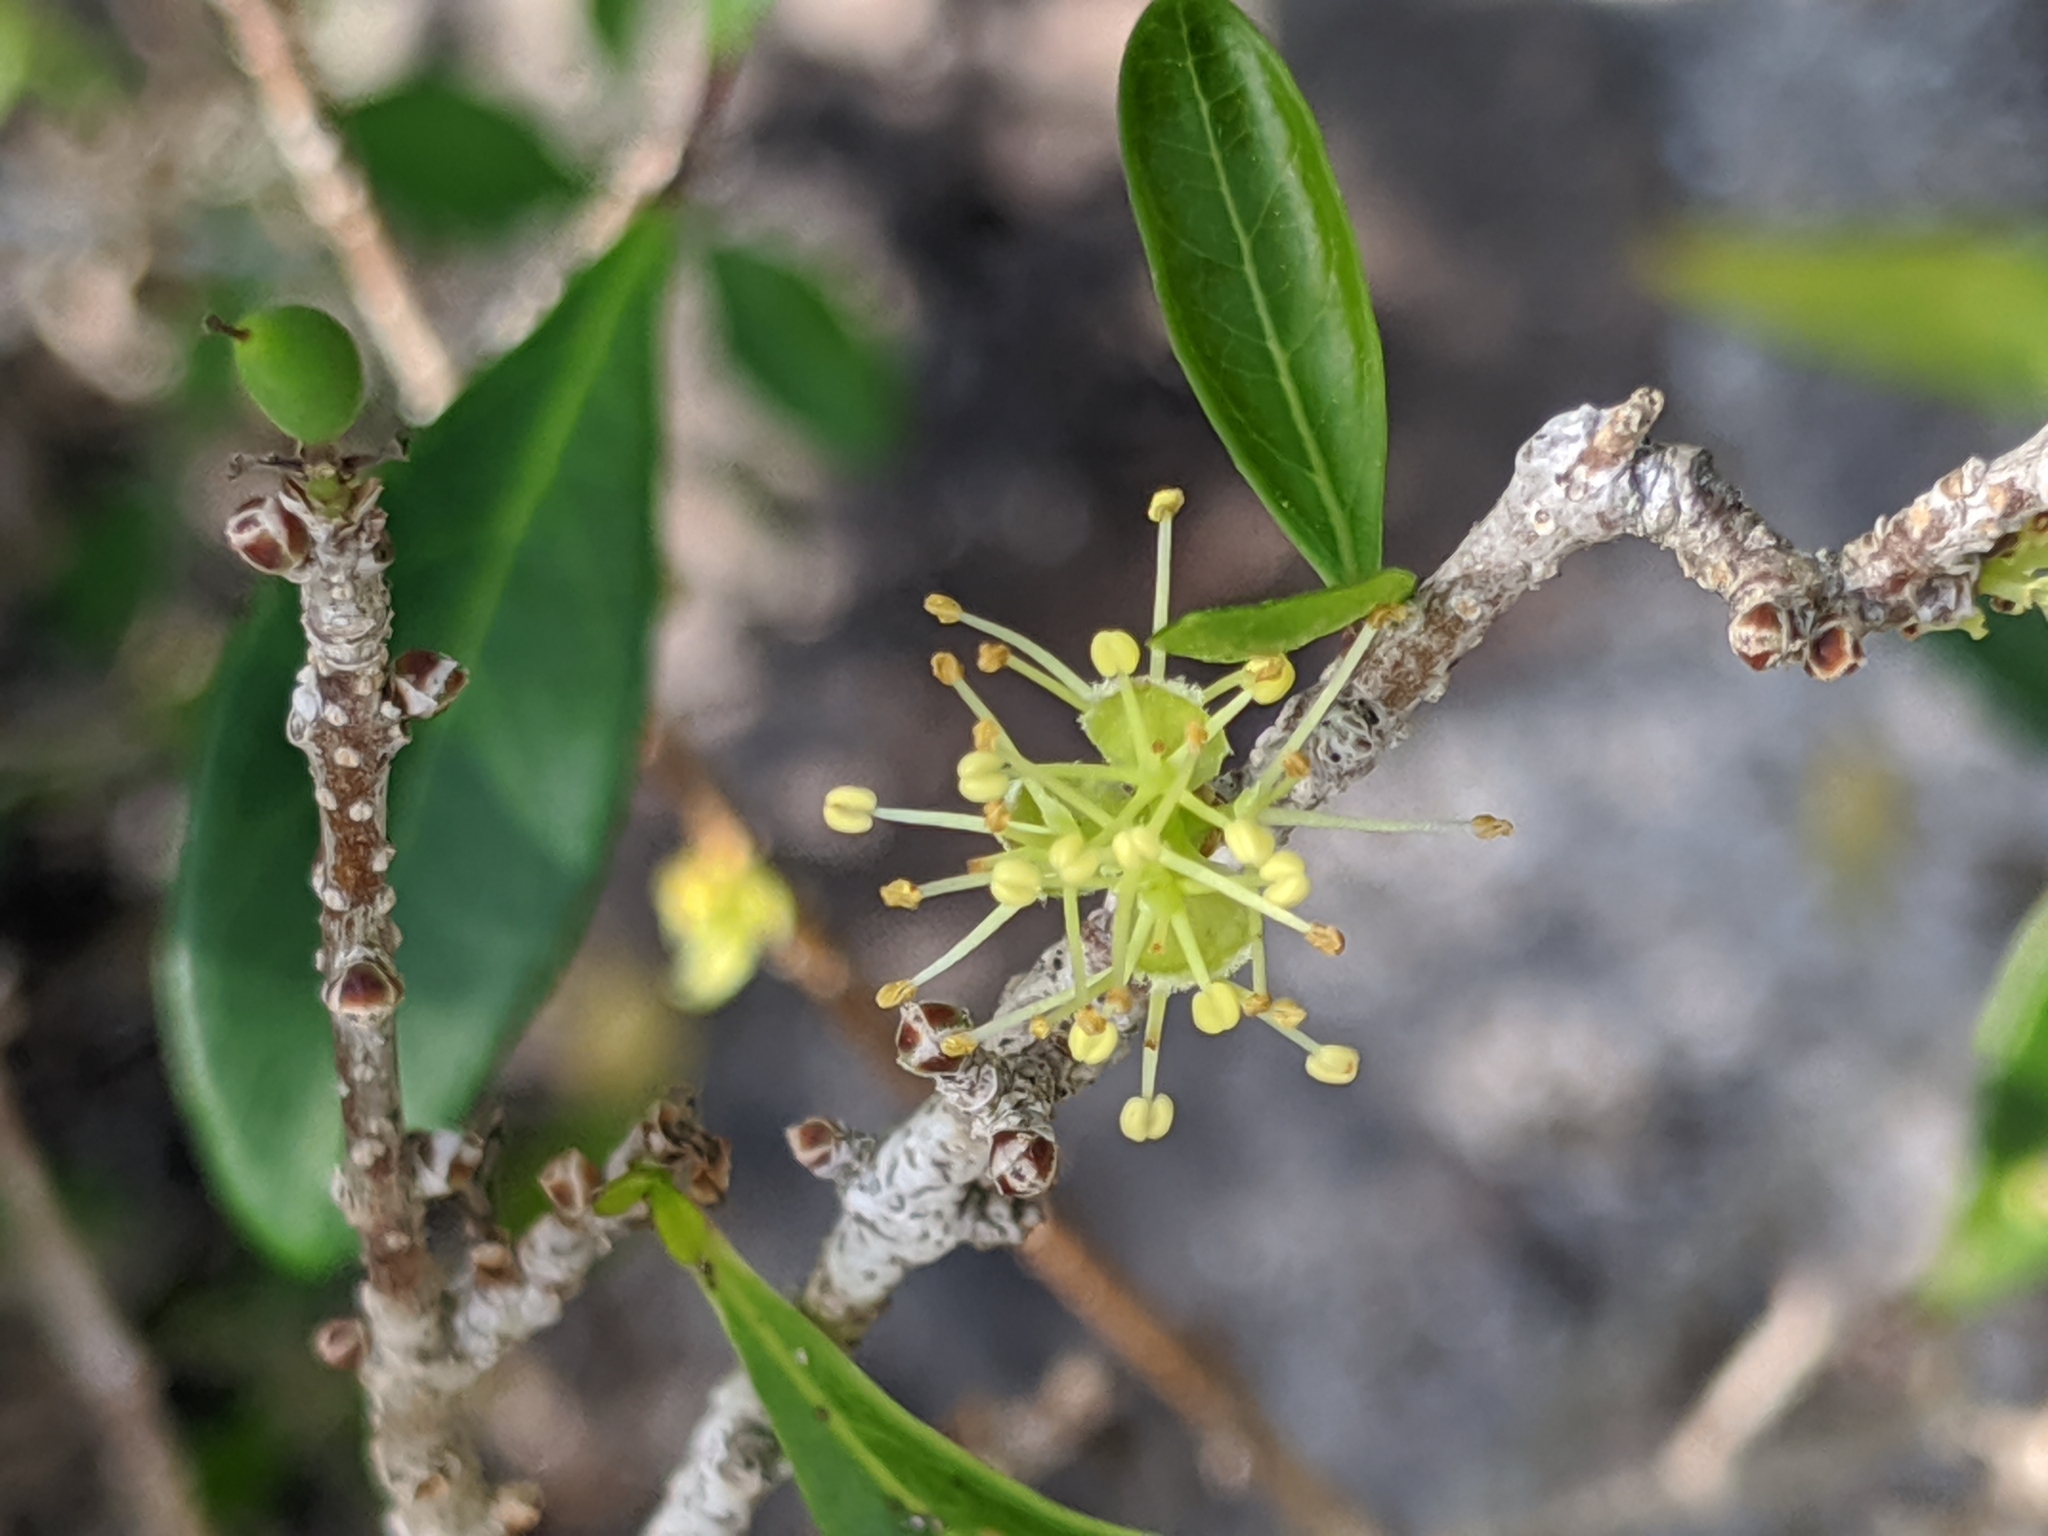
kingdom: Plantae
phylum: Tracheophyta
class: Magnoliopsida
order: Lamiales
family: Oleaceae
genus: Forestiera
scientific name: Forestiera segregata
